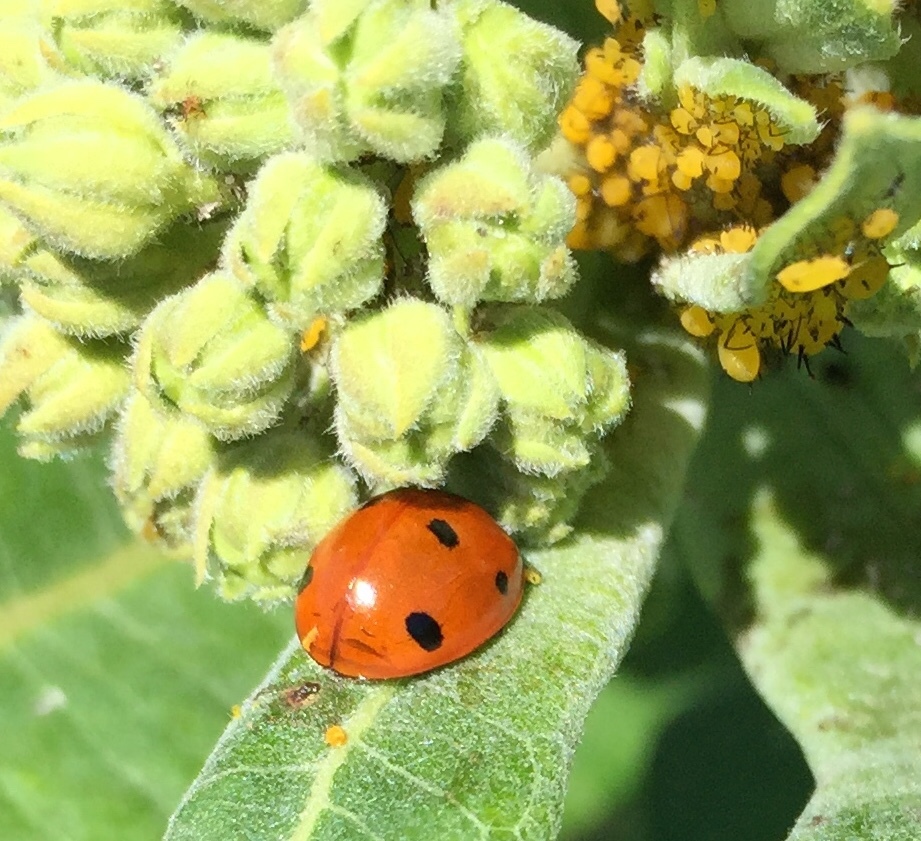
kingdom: Animalia
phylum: Arthropoda
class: Insecta
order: Coleoptera
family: Coccinellidae
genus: Coccinella
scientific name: Coccinella septempunctata
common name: Sevenspotted lady beetle
